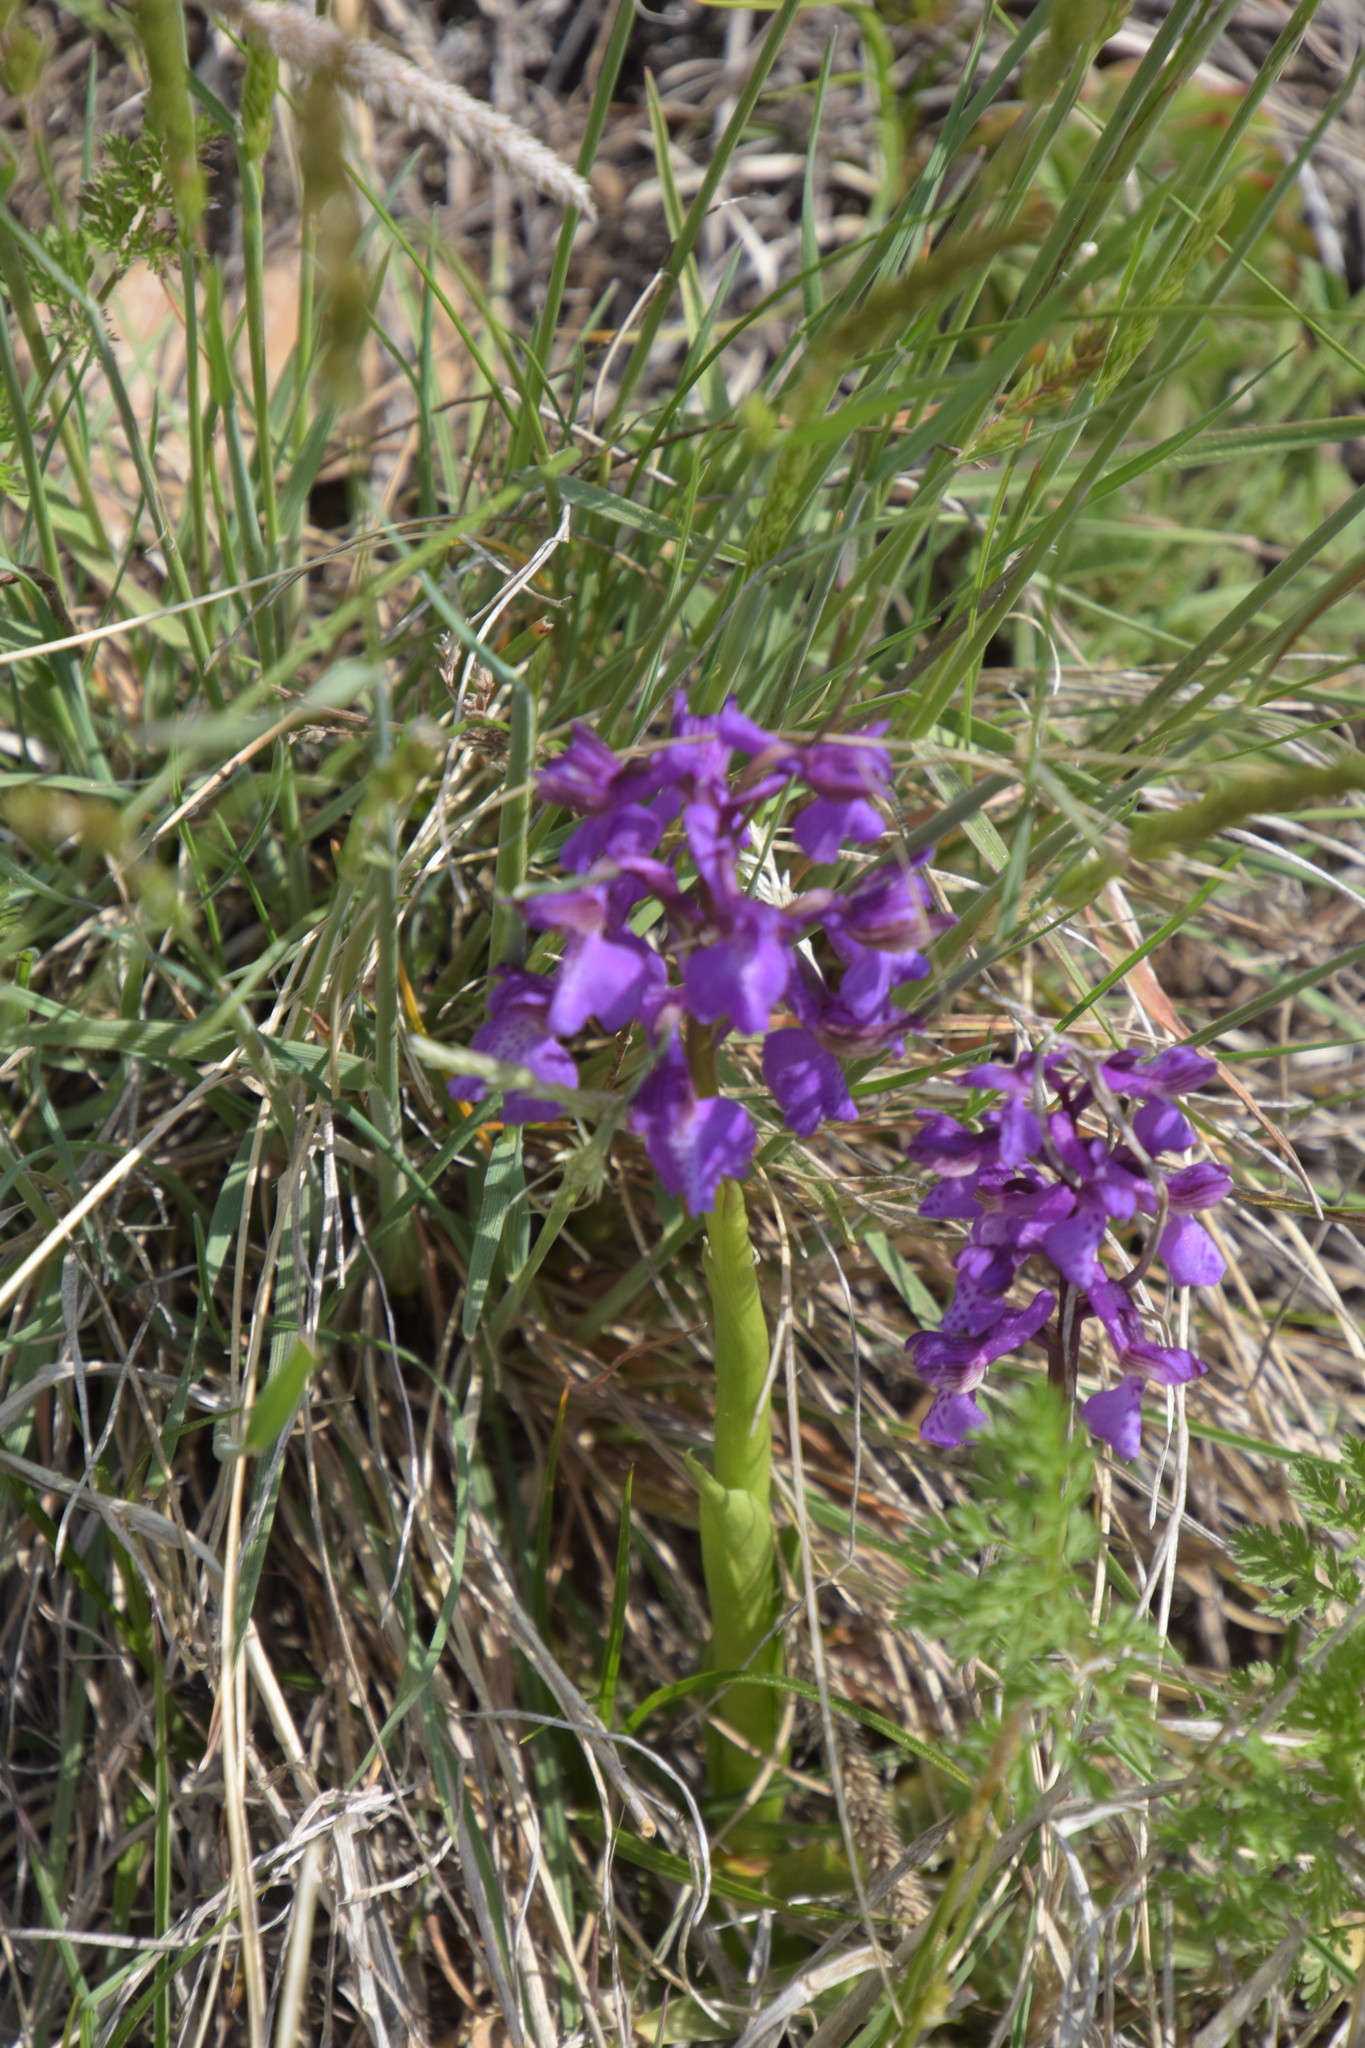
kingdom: Plantae
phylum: Tracheophyta
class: Liliopsida
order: Asparagales
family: Orchidaceae
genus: Anacamptis
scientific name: Anacamptis morio
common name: Green-winged orchid
